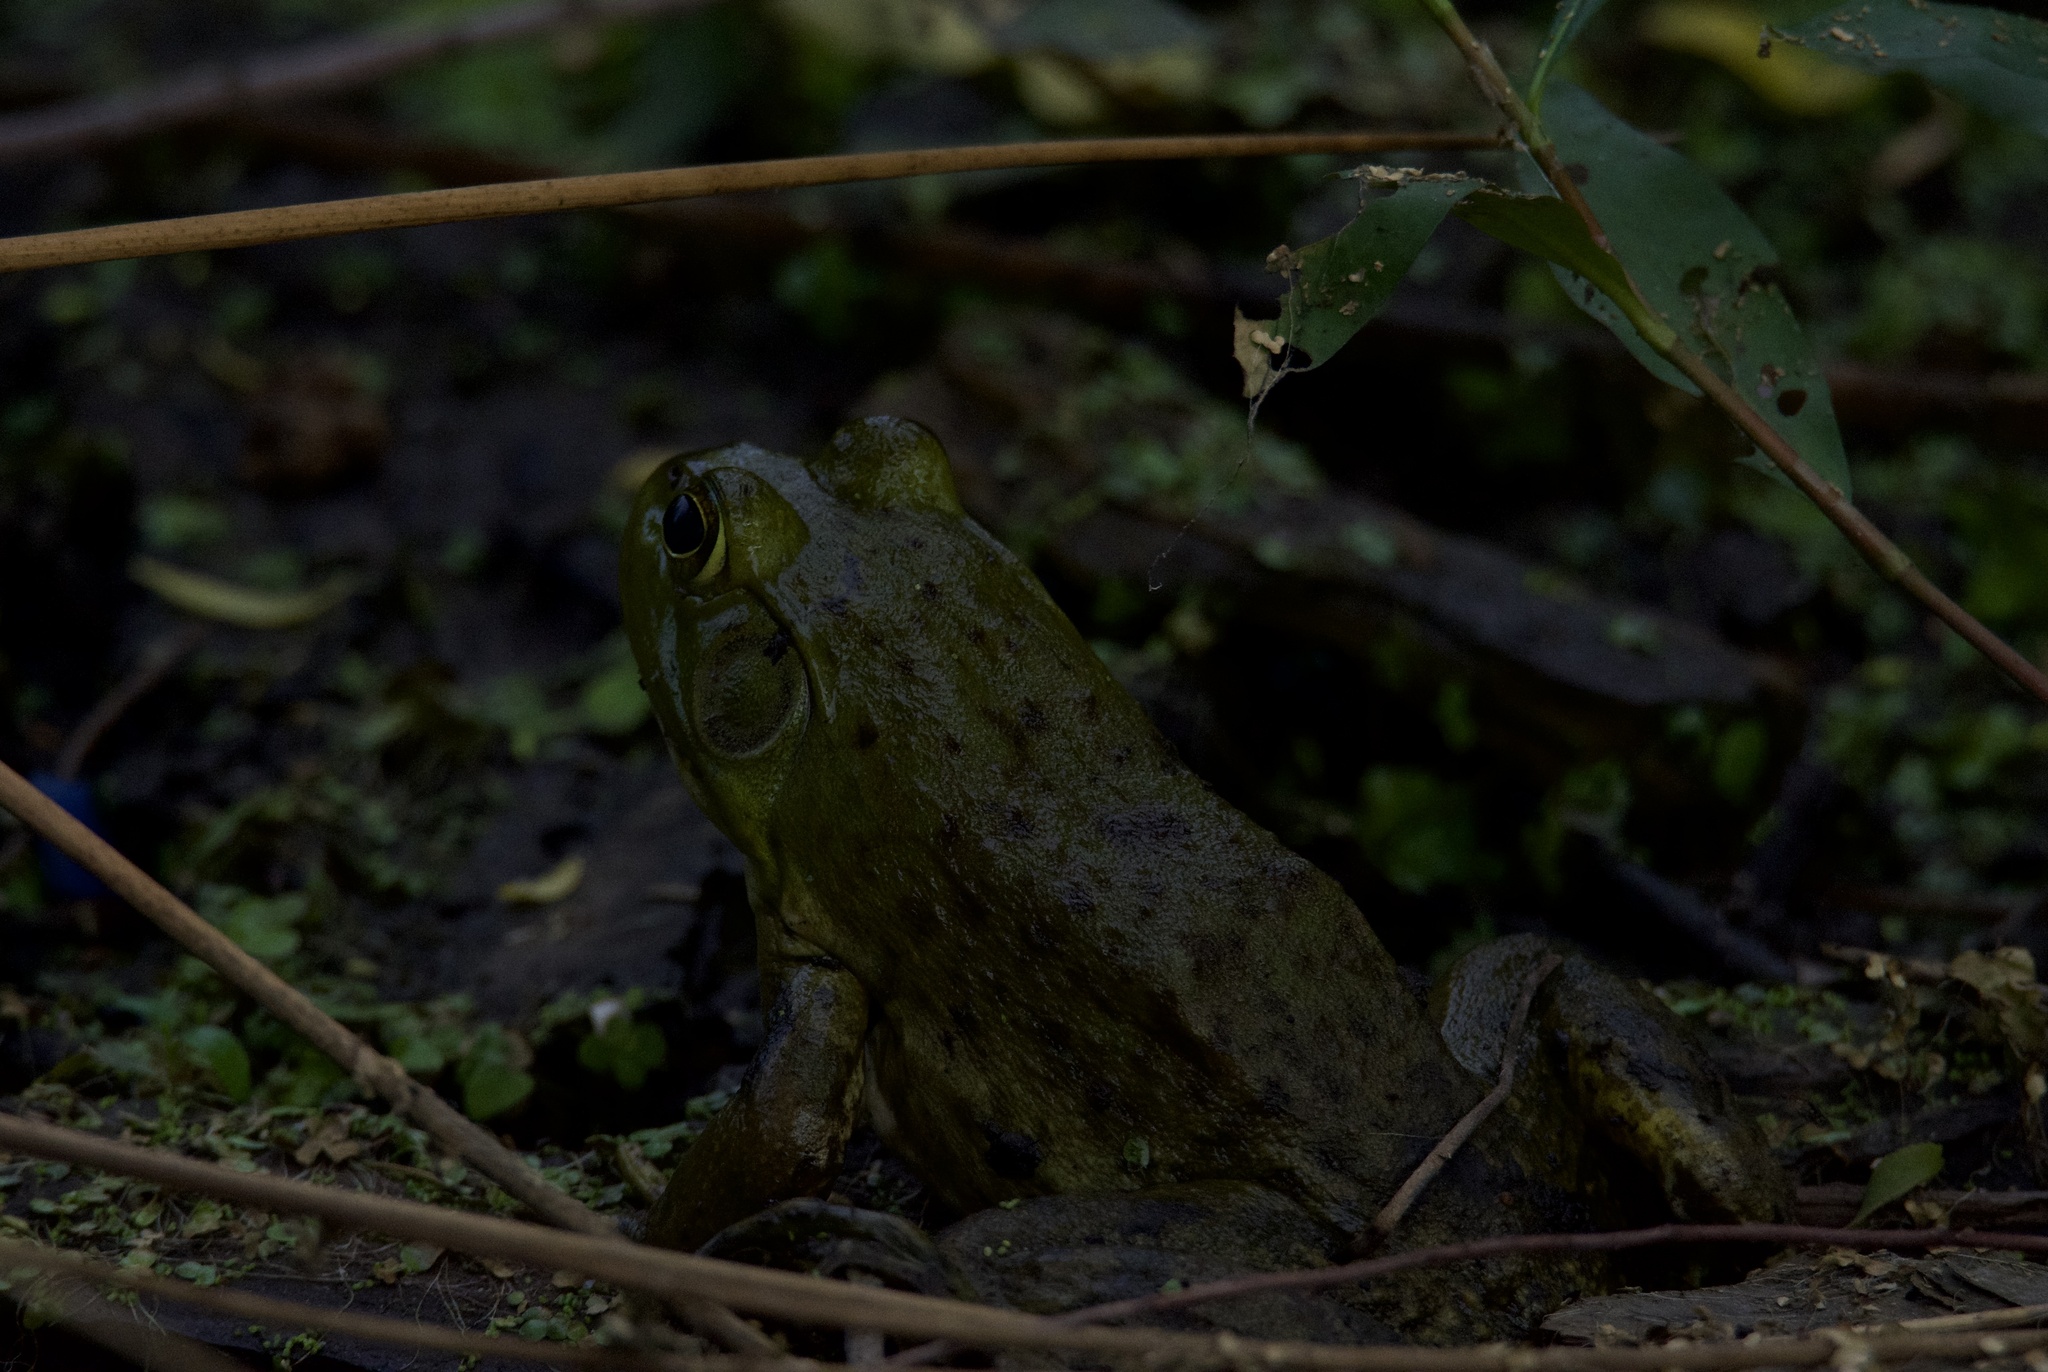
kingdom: Animalia
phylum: Chordata
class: Amphibia
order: Anura
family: Ranidae
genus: Lithobates
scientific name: Lithobates catesbeianus
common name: American bullfrog
